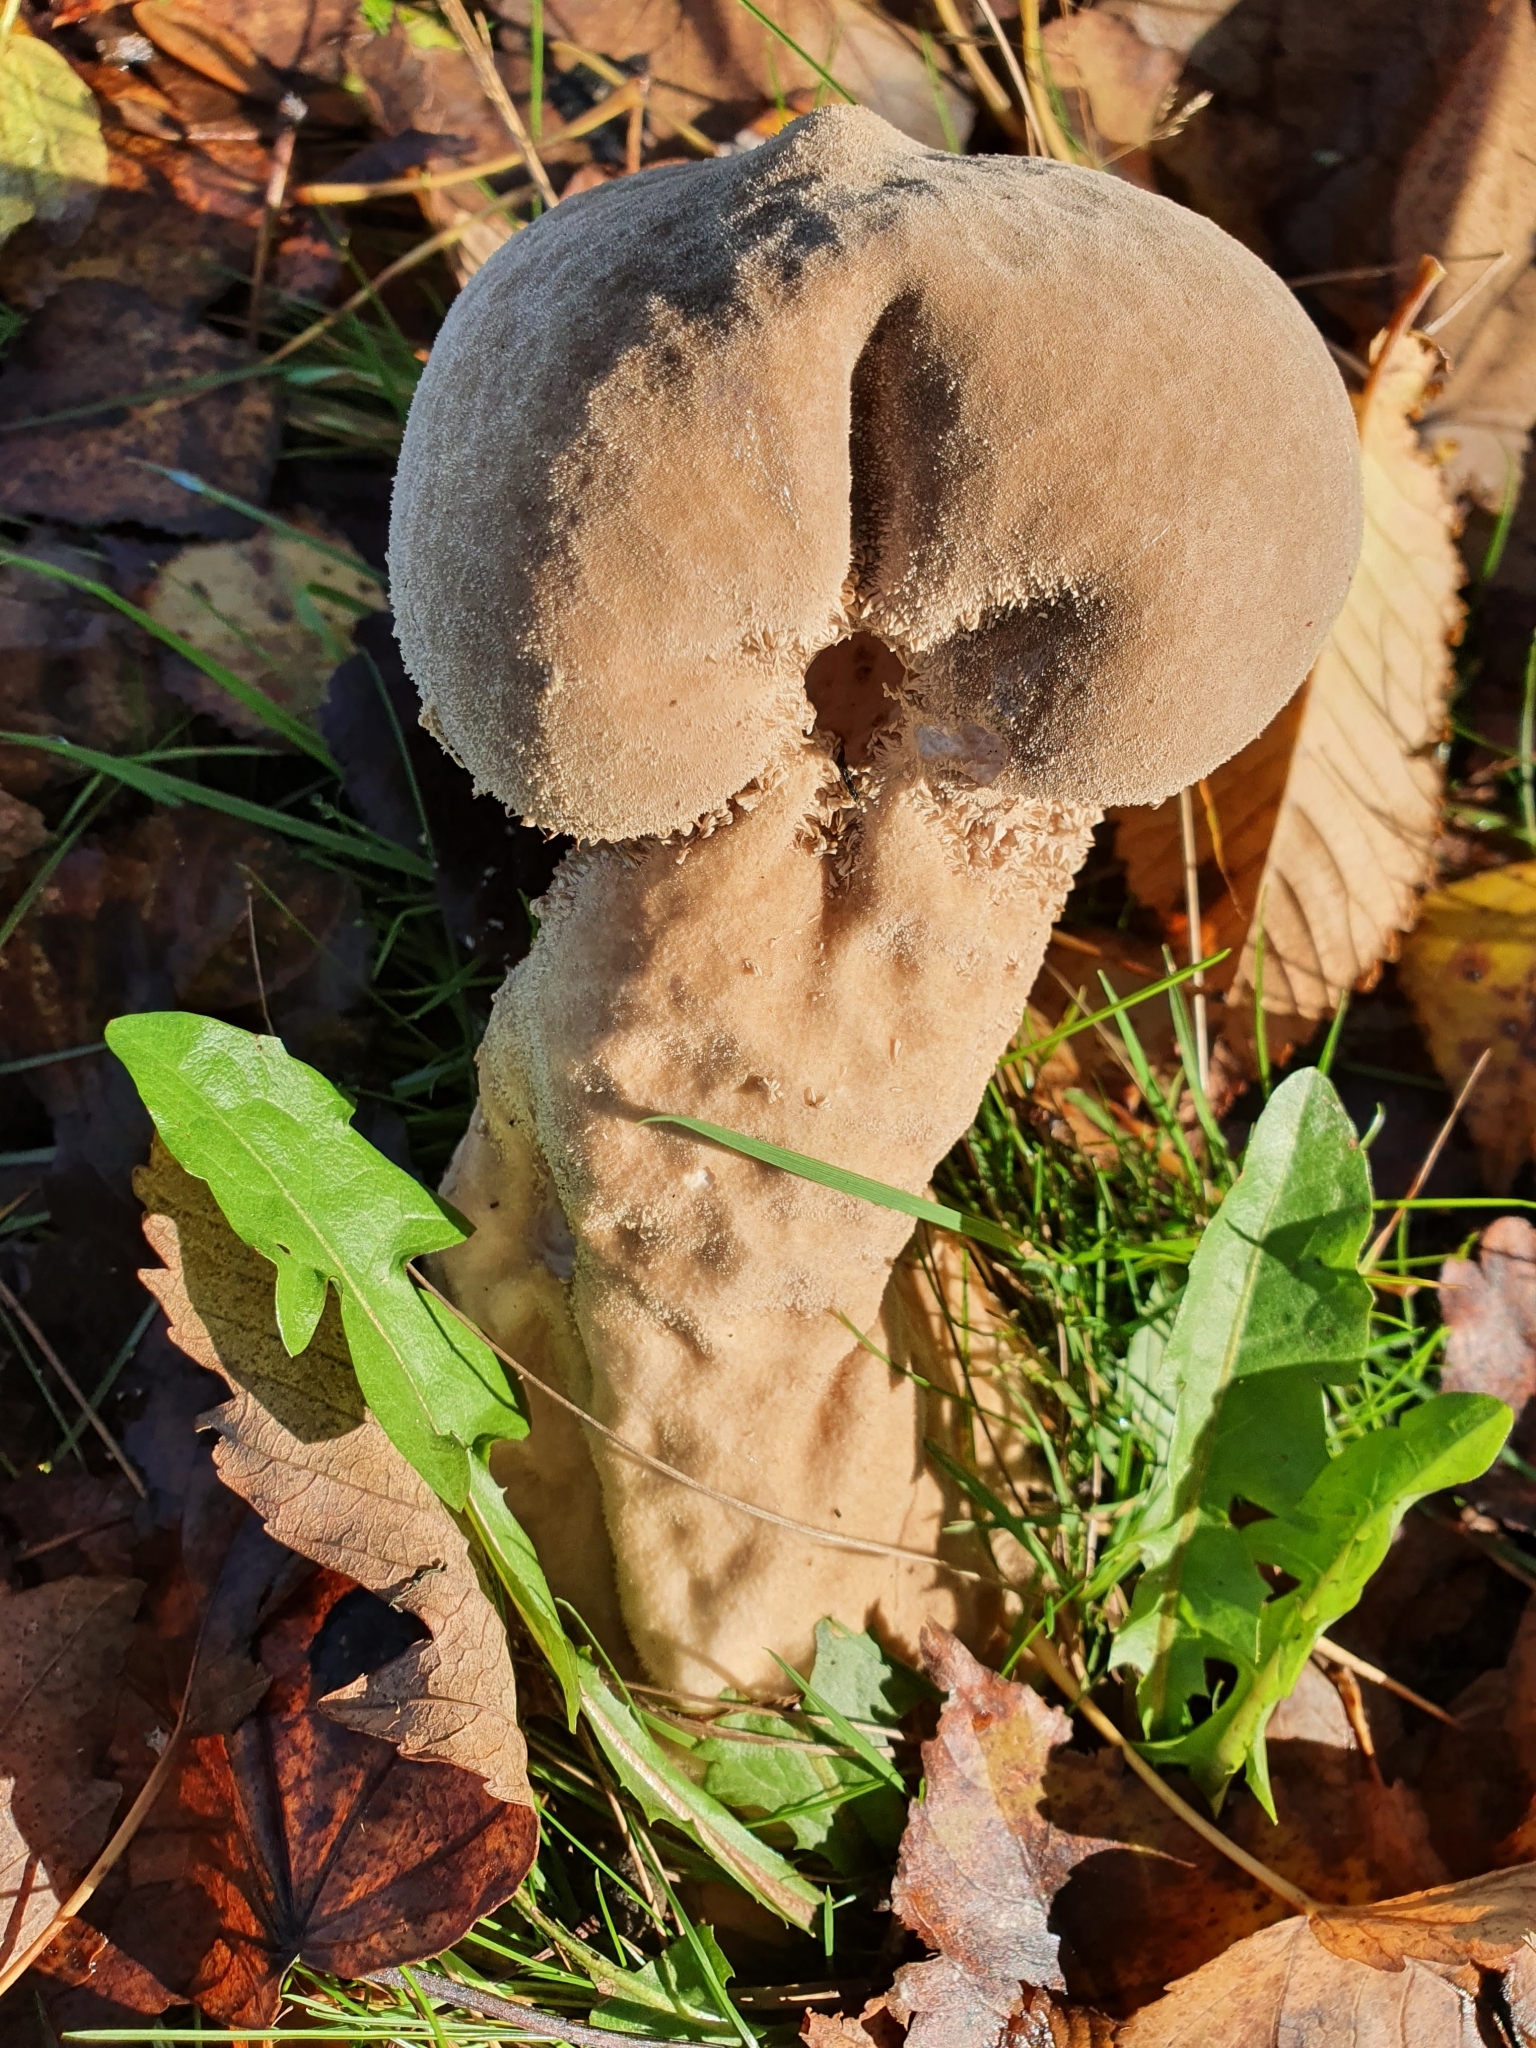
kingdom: Fungi
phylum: Basidiomycota
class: Agaricomycetes
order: Agaricales
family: Lycoperdaceae
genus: Lycoperdon
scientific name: Lycoperdon excipuliforme
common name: Pestle puffball
